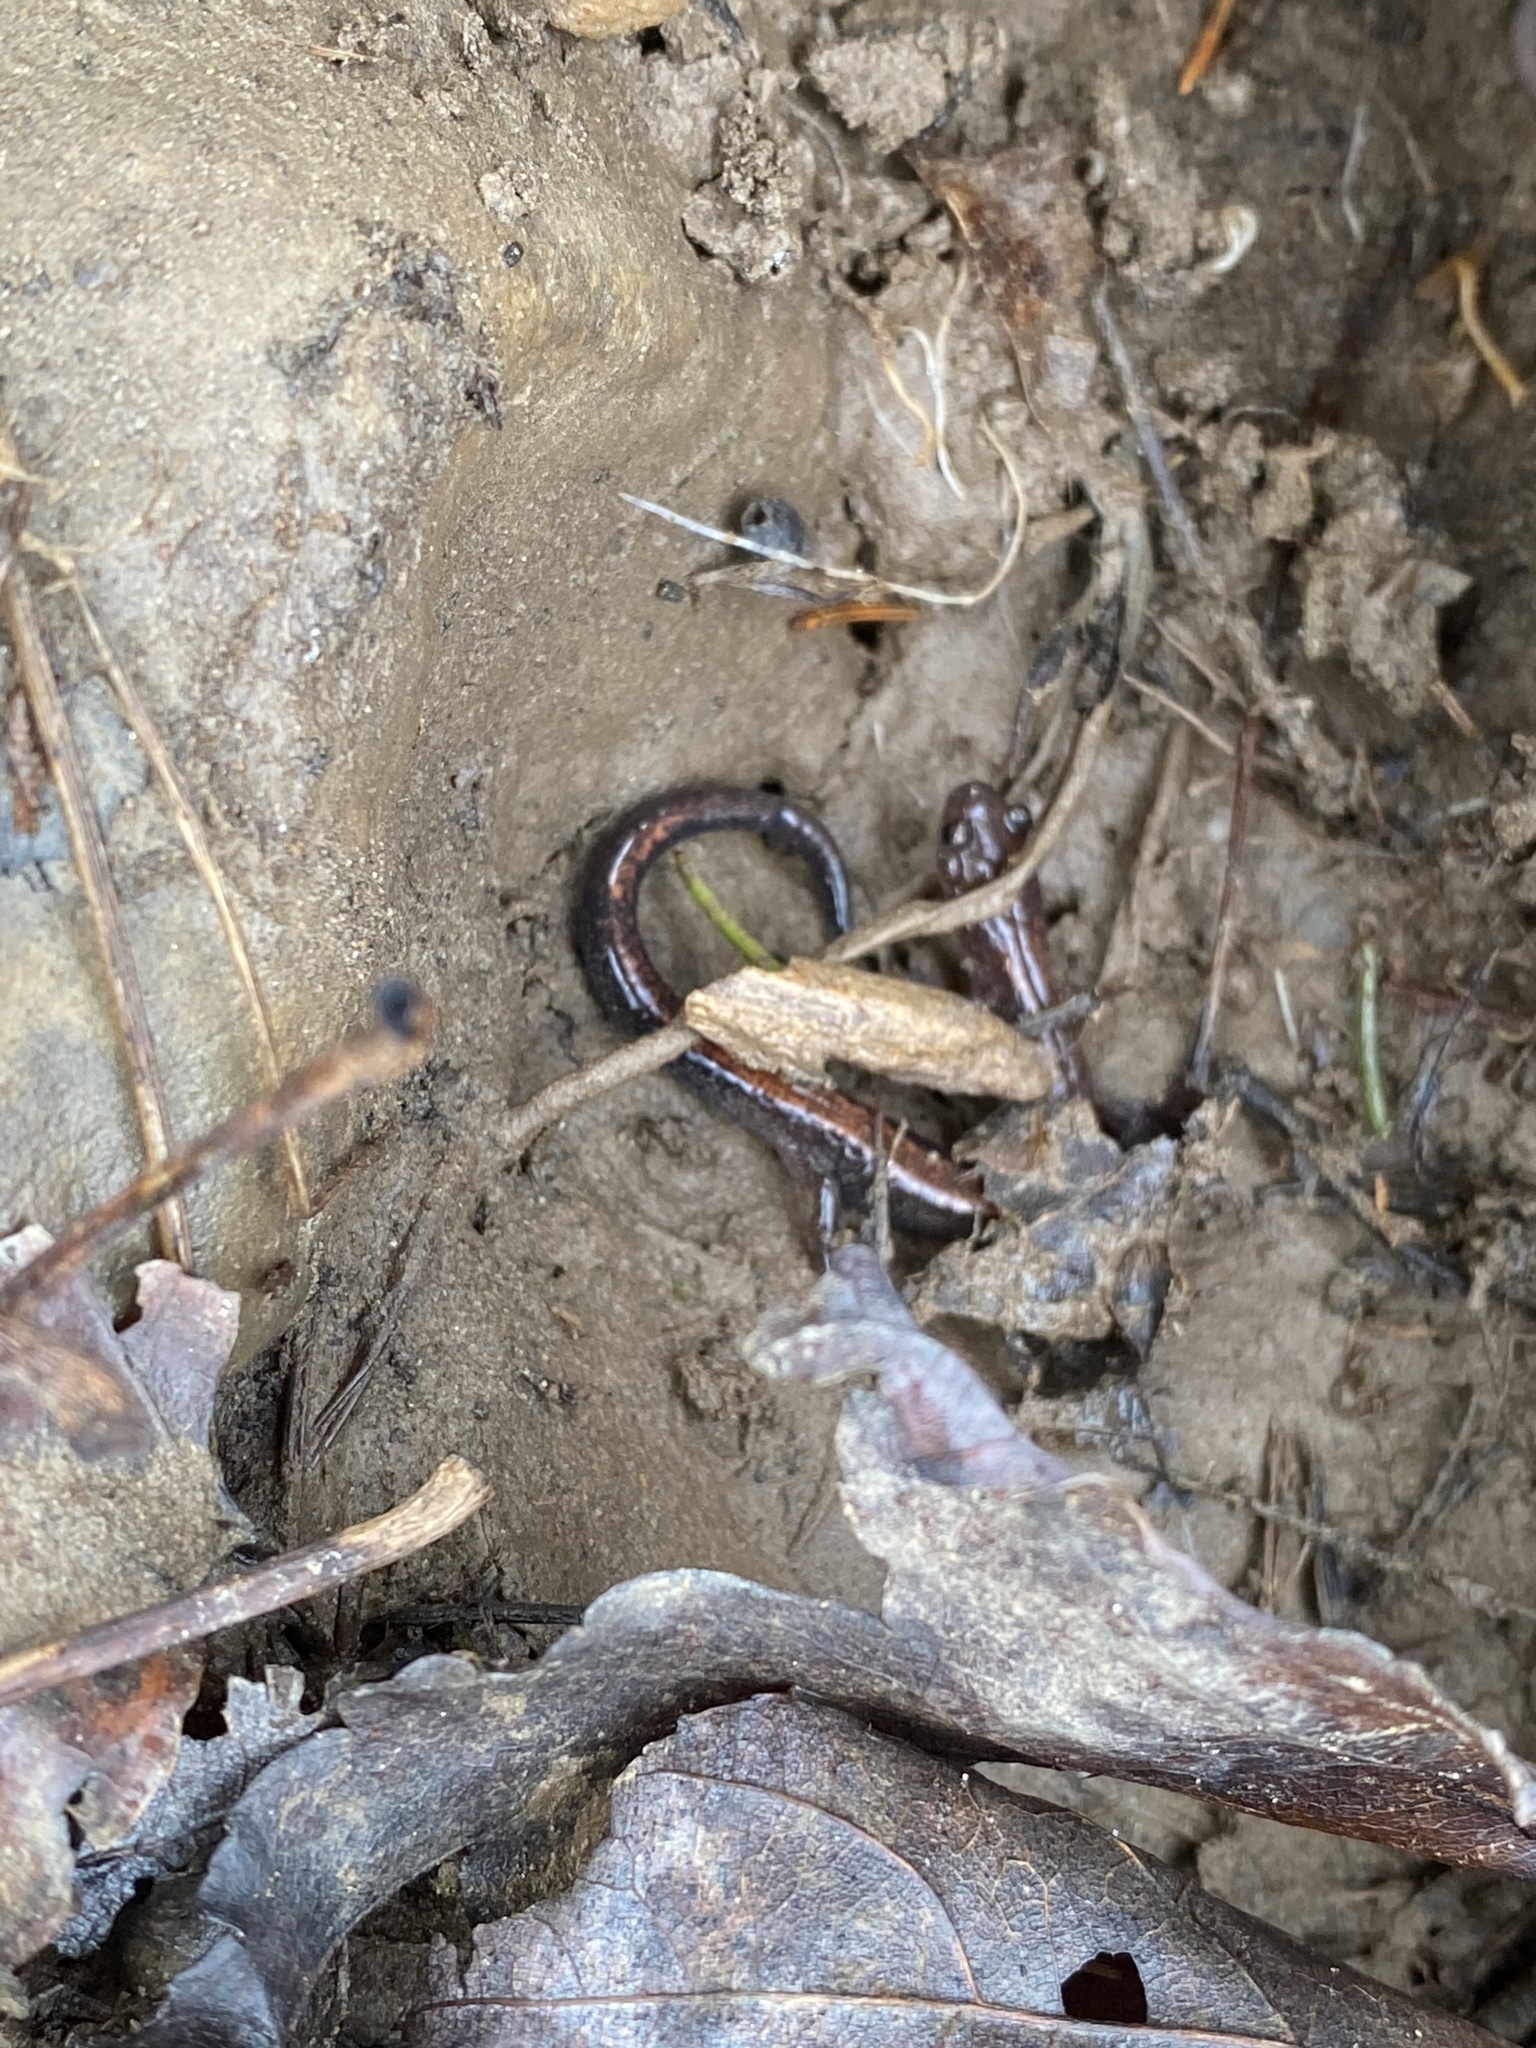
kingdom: Animalia
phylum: Chordata
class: Amphibia
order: Caudata
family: Plethodontidae
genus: Plethodon
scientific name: Plethodon cinereus
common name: Redback salamander
